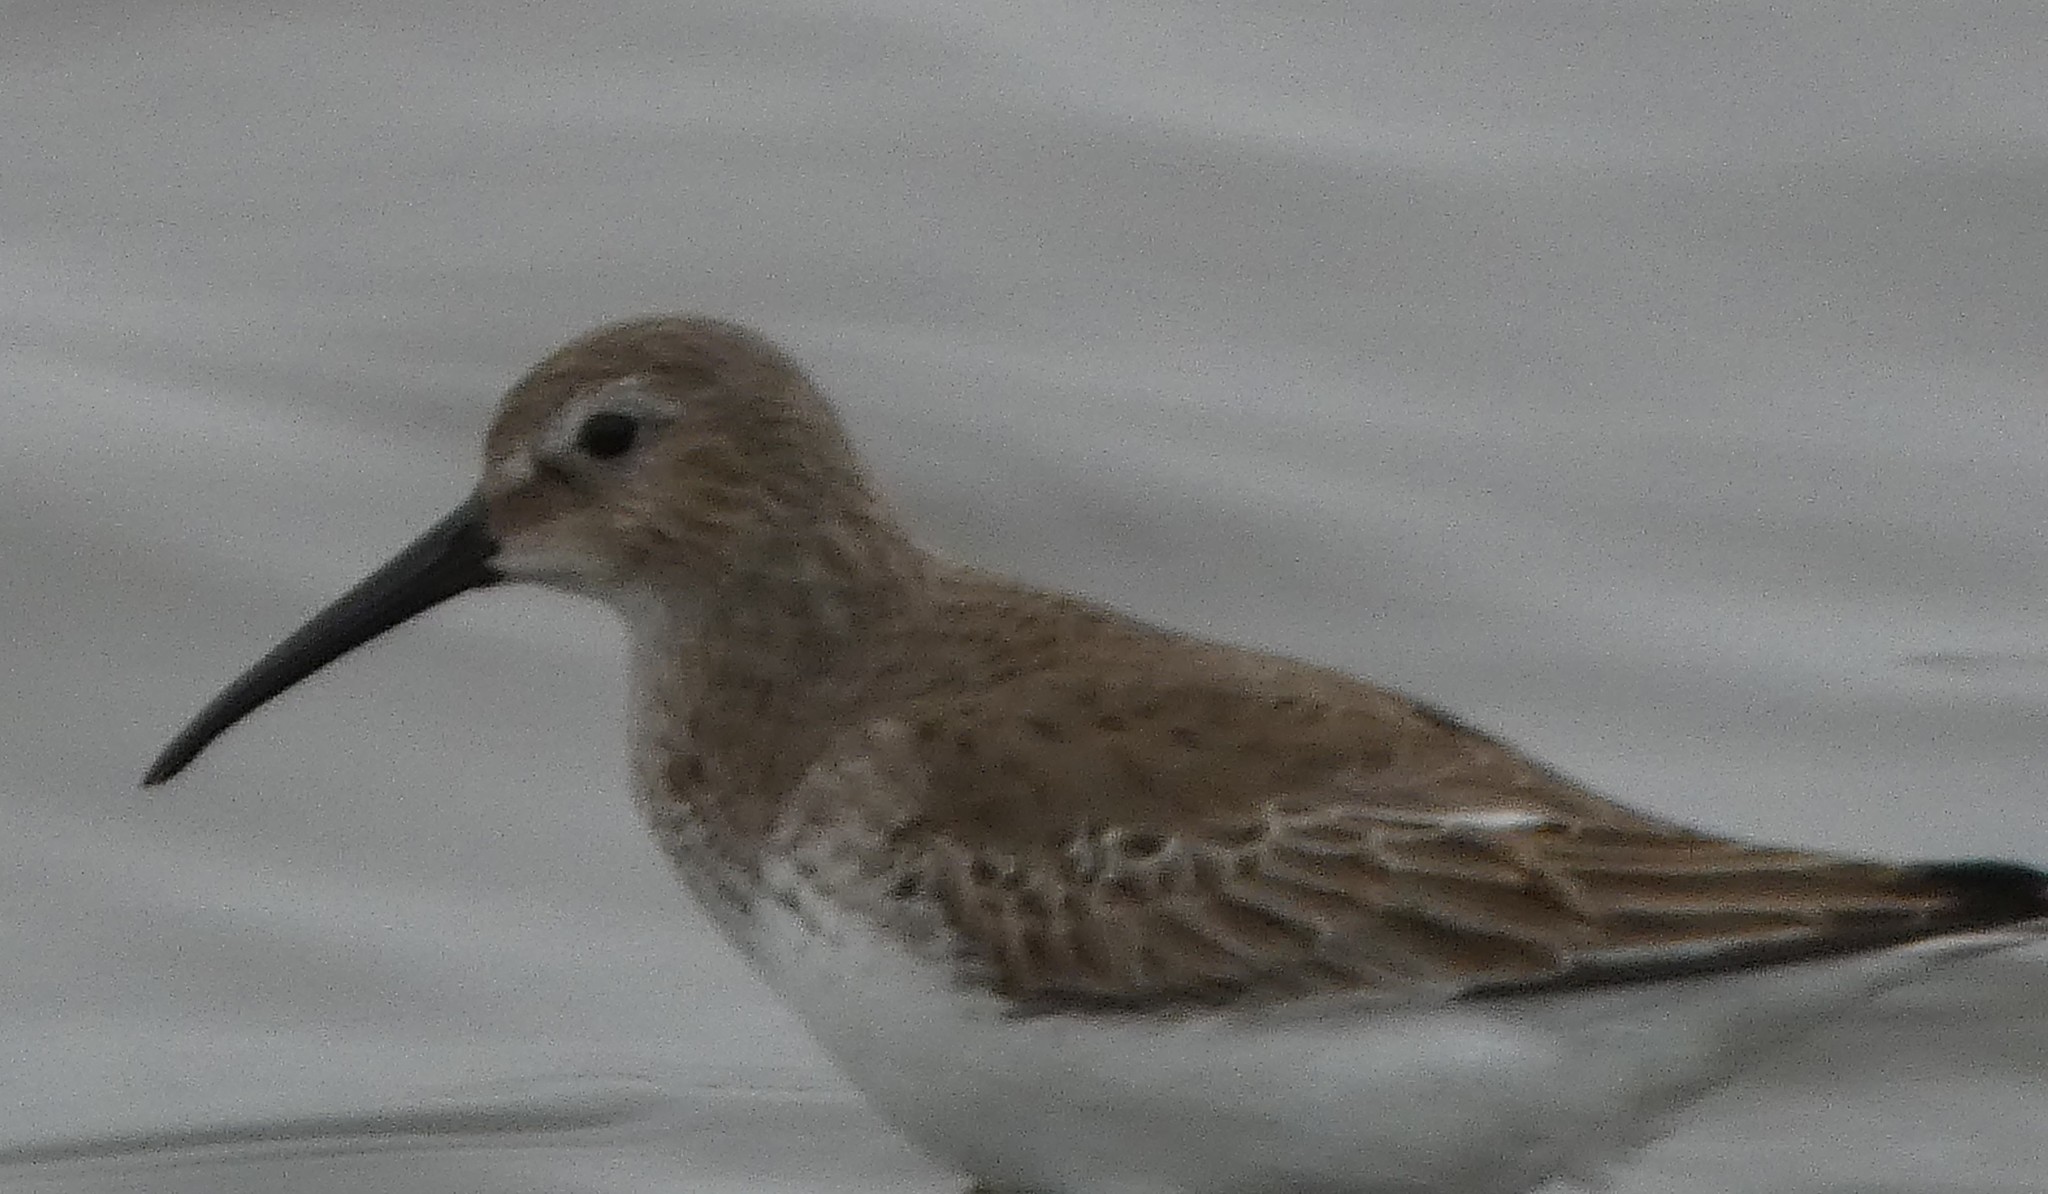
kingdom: Animalia
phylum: Chordata
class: Aves
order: Charadriiformes
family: Scolopacidae
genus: Calidris
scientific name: Calidris alpina
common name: Dunlin
